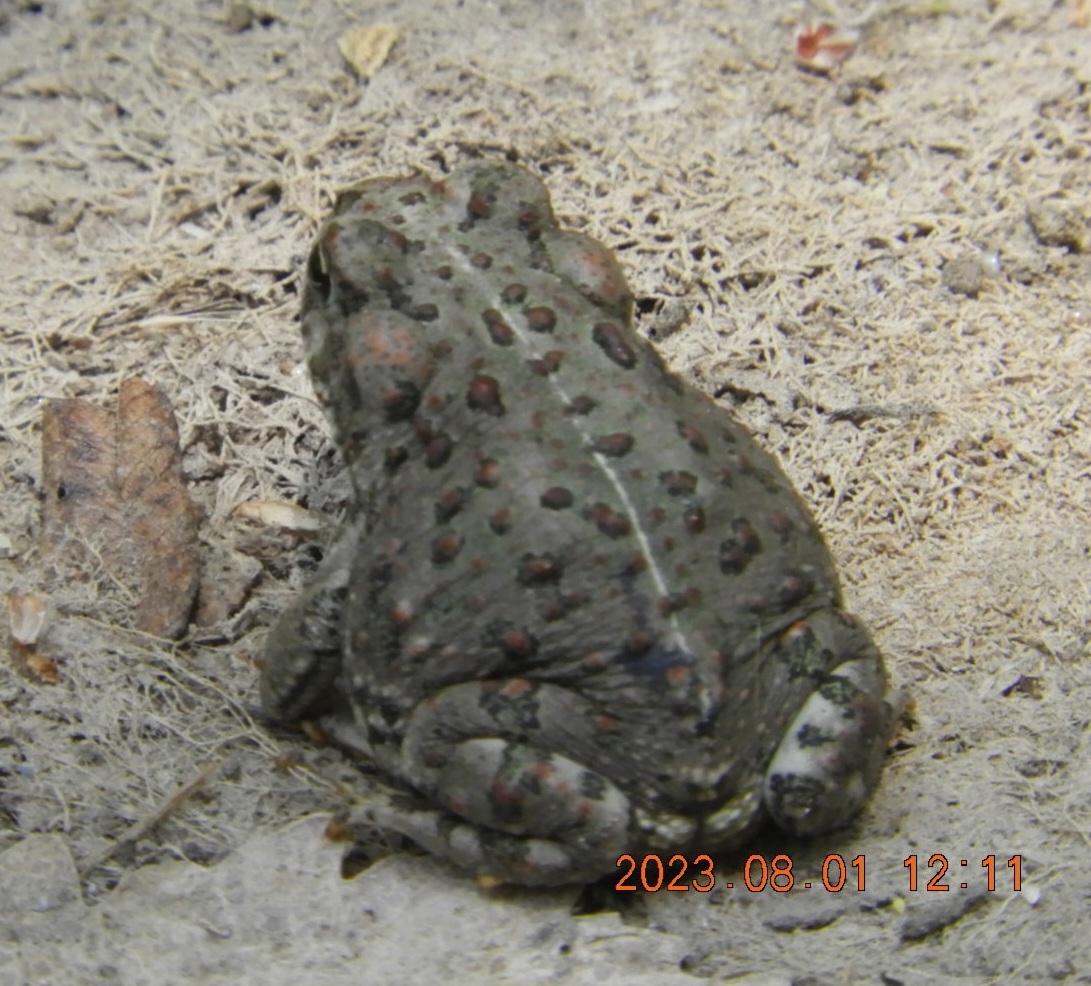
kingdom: Animalia
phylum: Chordata
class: Amphibia
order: Anura
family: Bufonidae
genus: Anaxyrus
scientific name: Anaxyrus boreas
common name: Western toad
